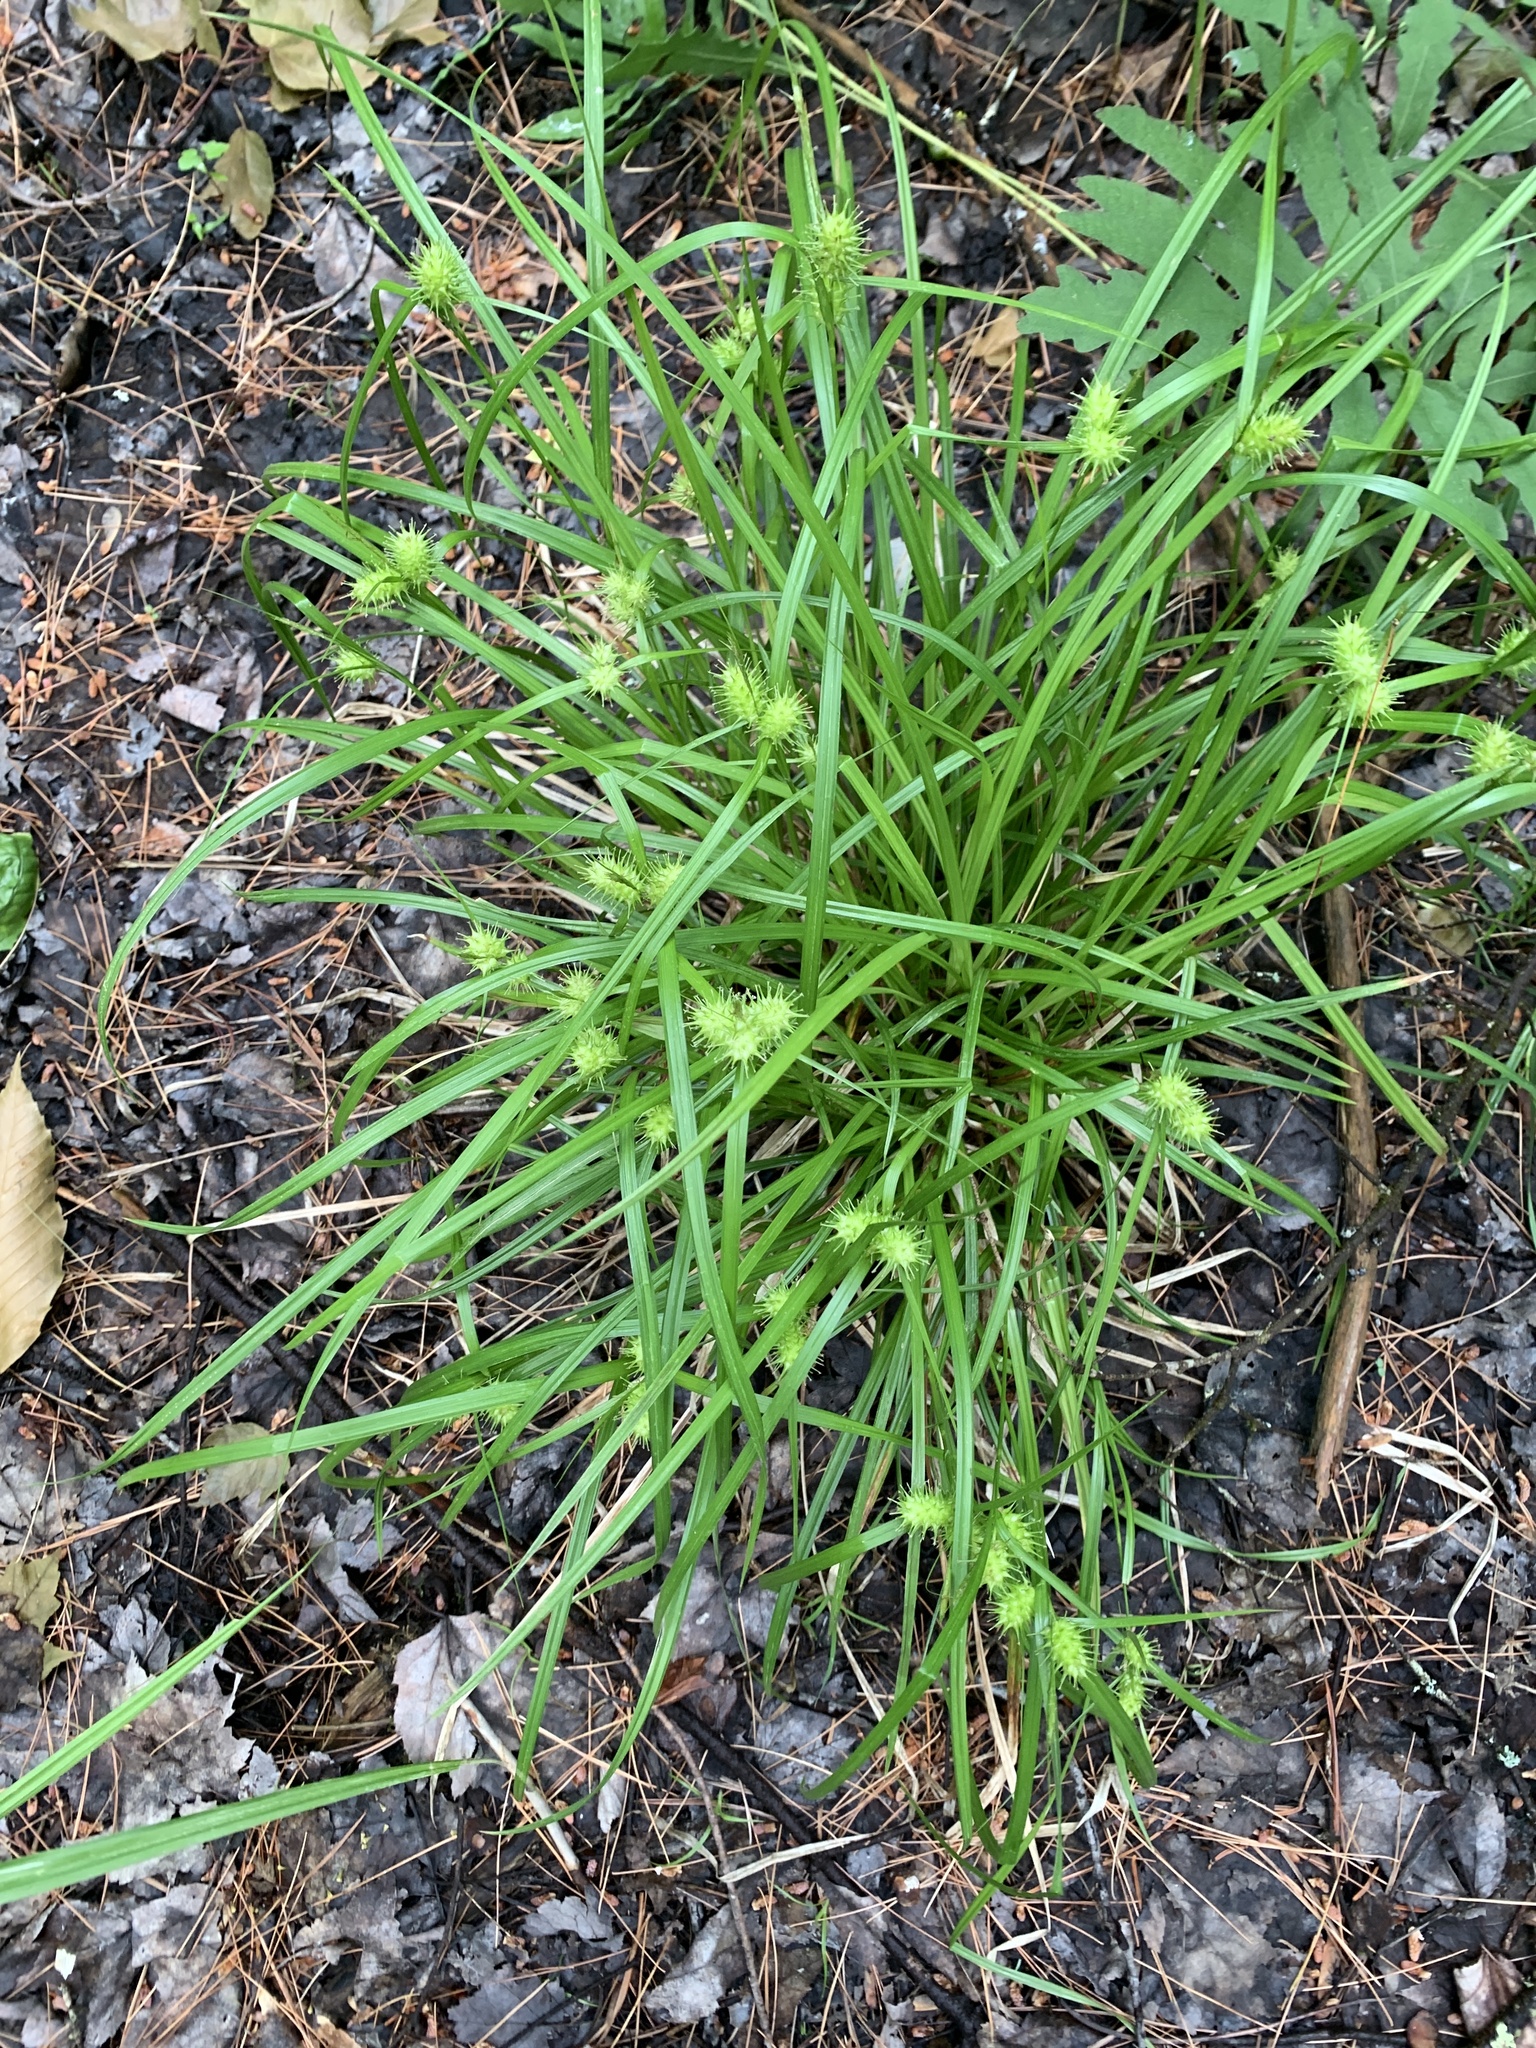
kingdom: Plantae
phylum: Tracheophyta
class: Liliopsida
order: Poales
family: Cyperaceae
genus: Carex
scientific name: Carex lurida
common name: Sallow sedge
